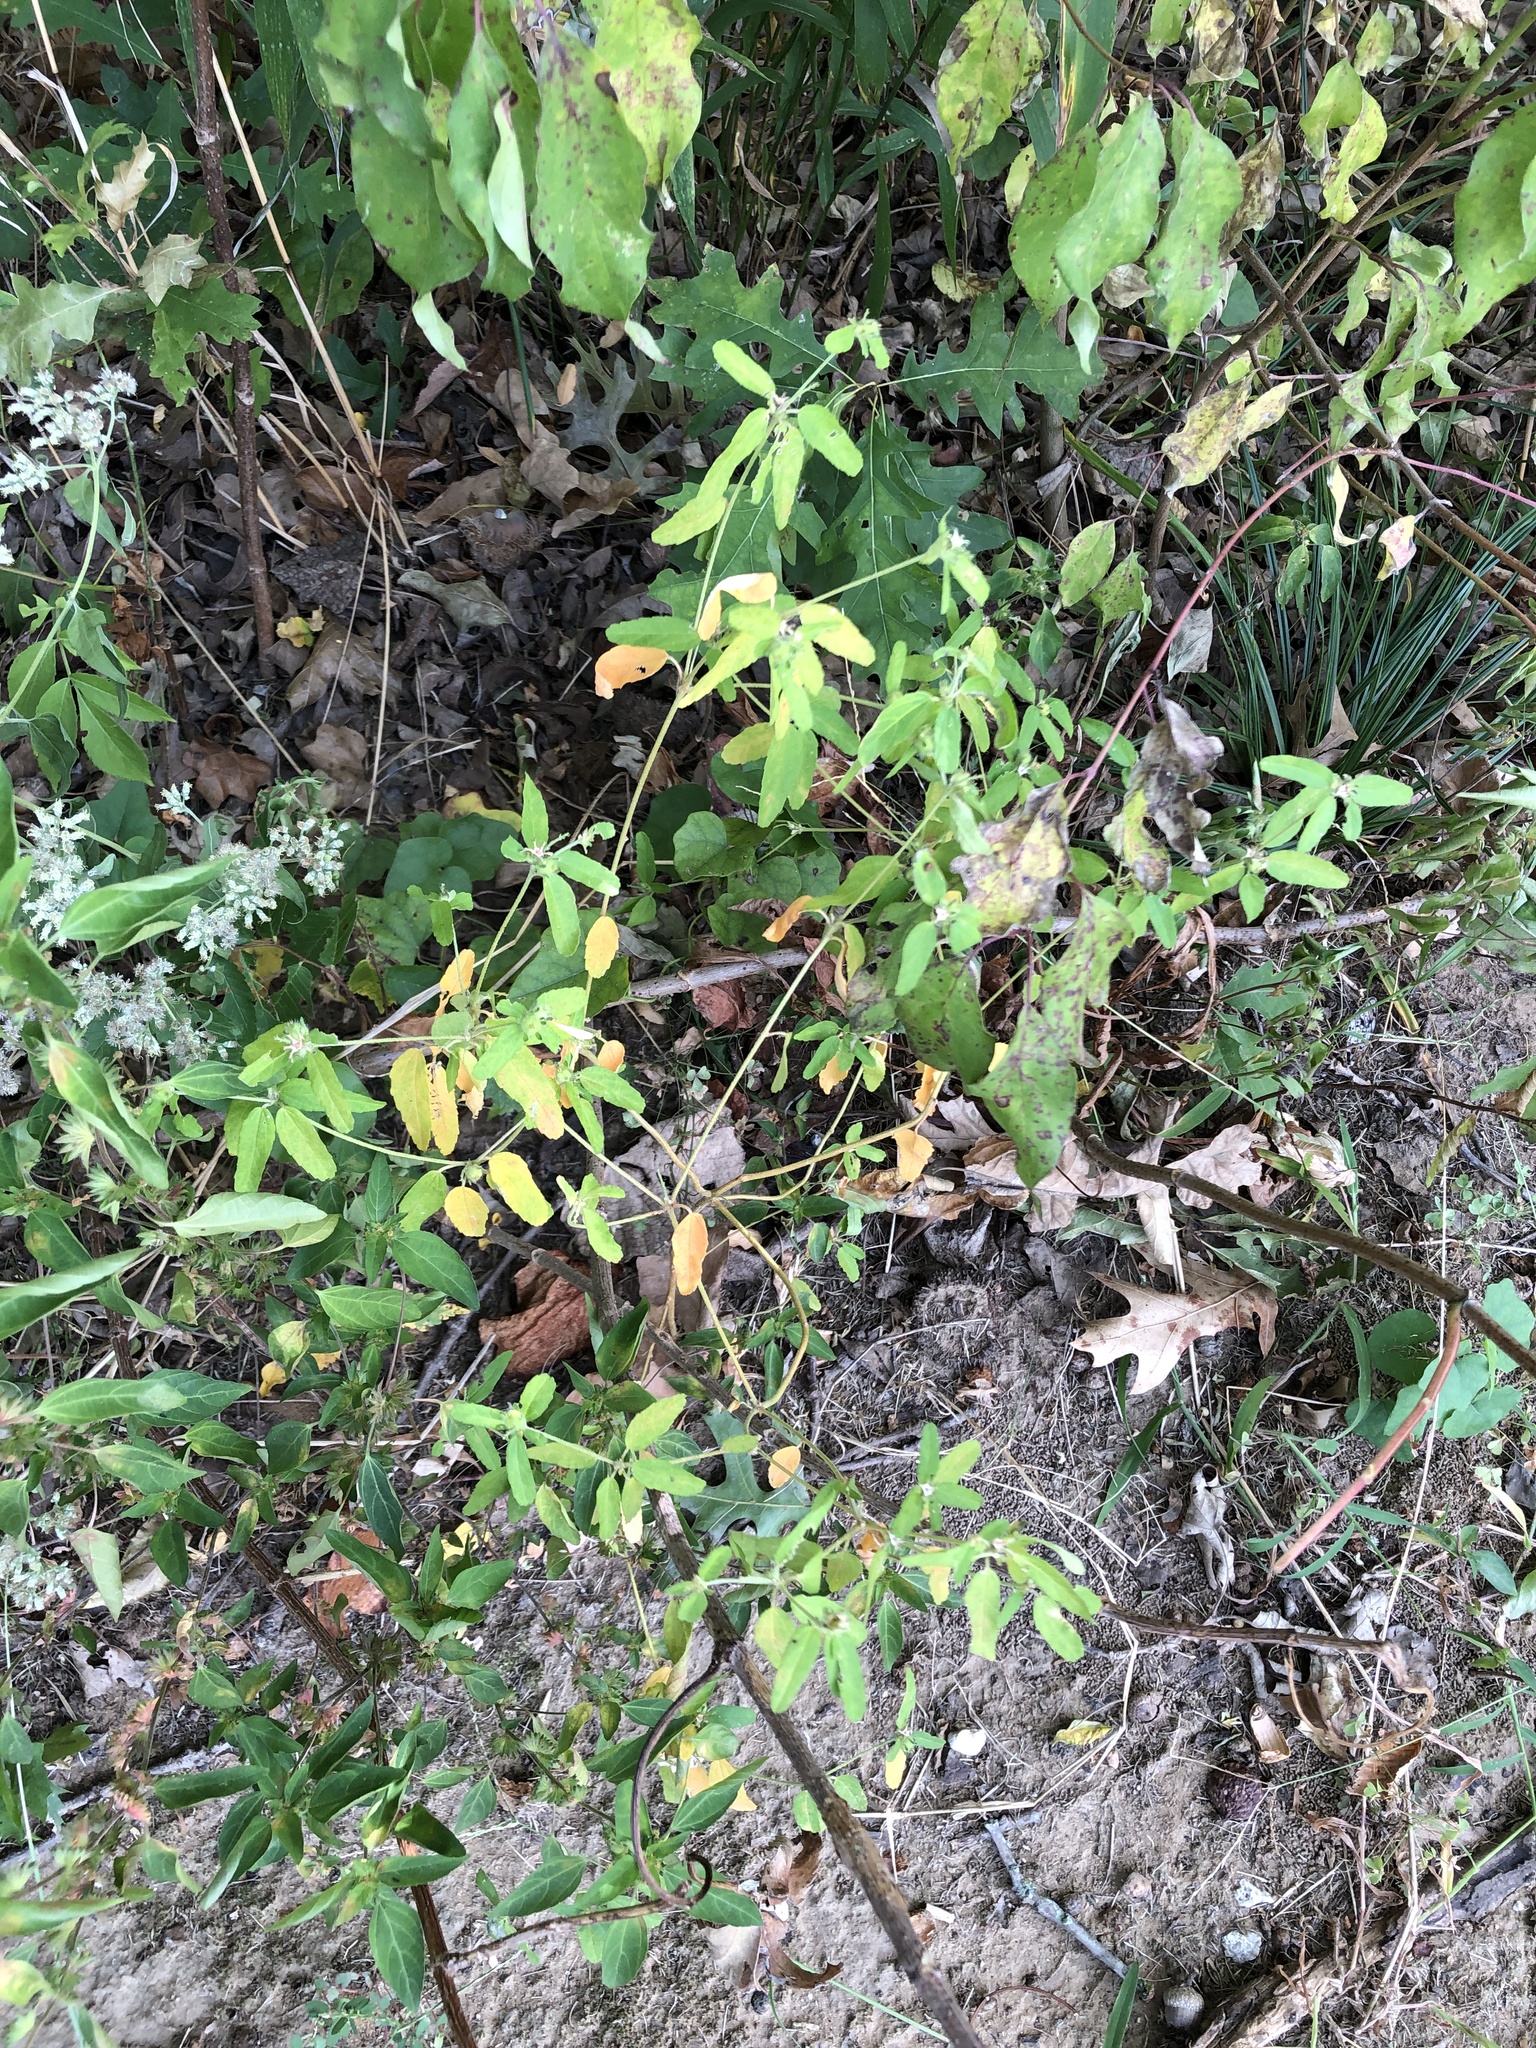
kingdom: Plantae
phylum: Tracheophyta
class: Magnoliopsida
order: Malpighiales
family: Euphorbiaceae
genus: Croton
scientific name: Croton glandulosus
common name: Tropic croton
